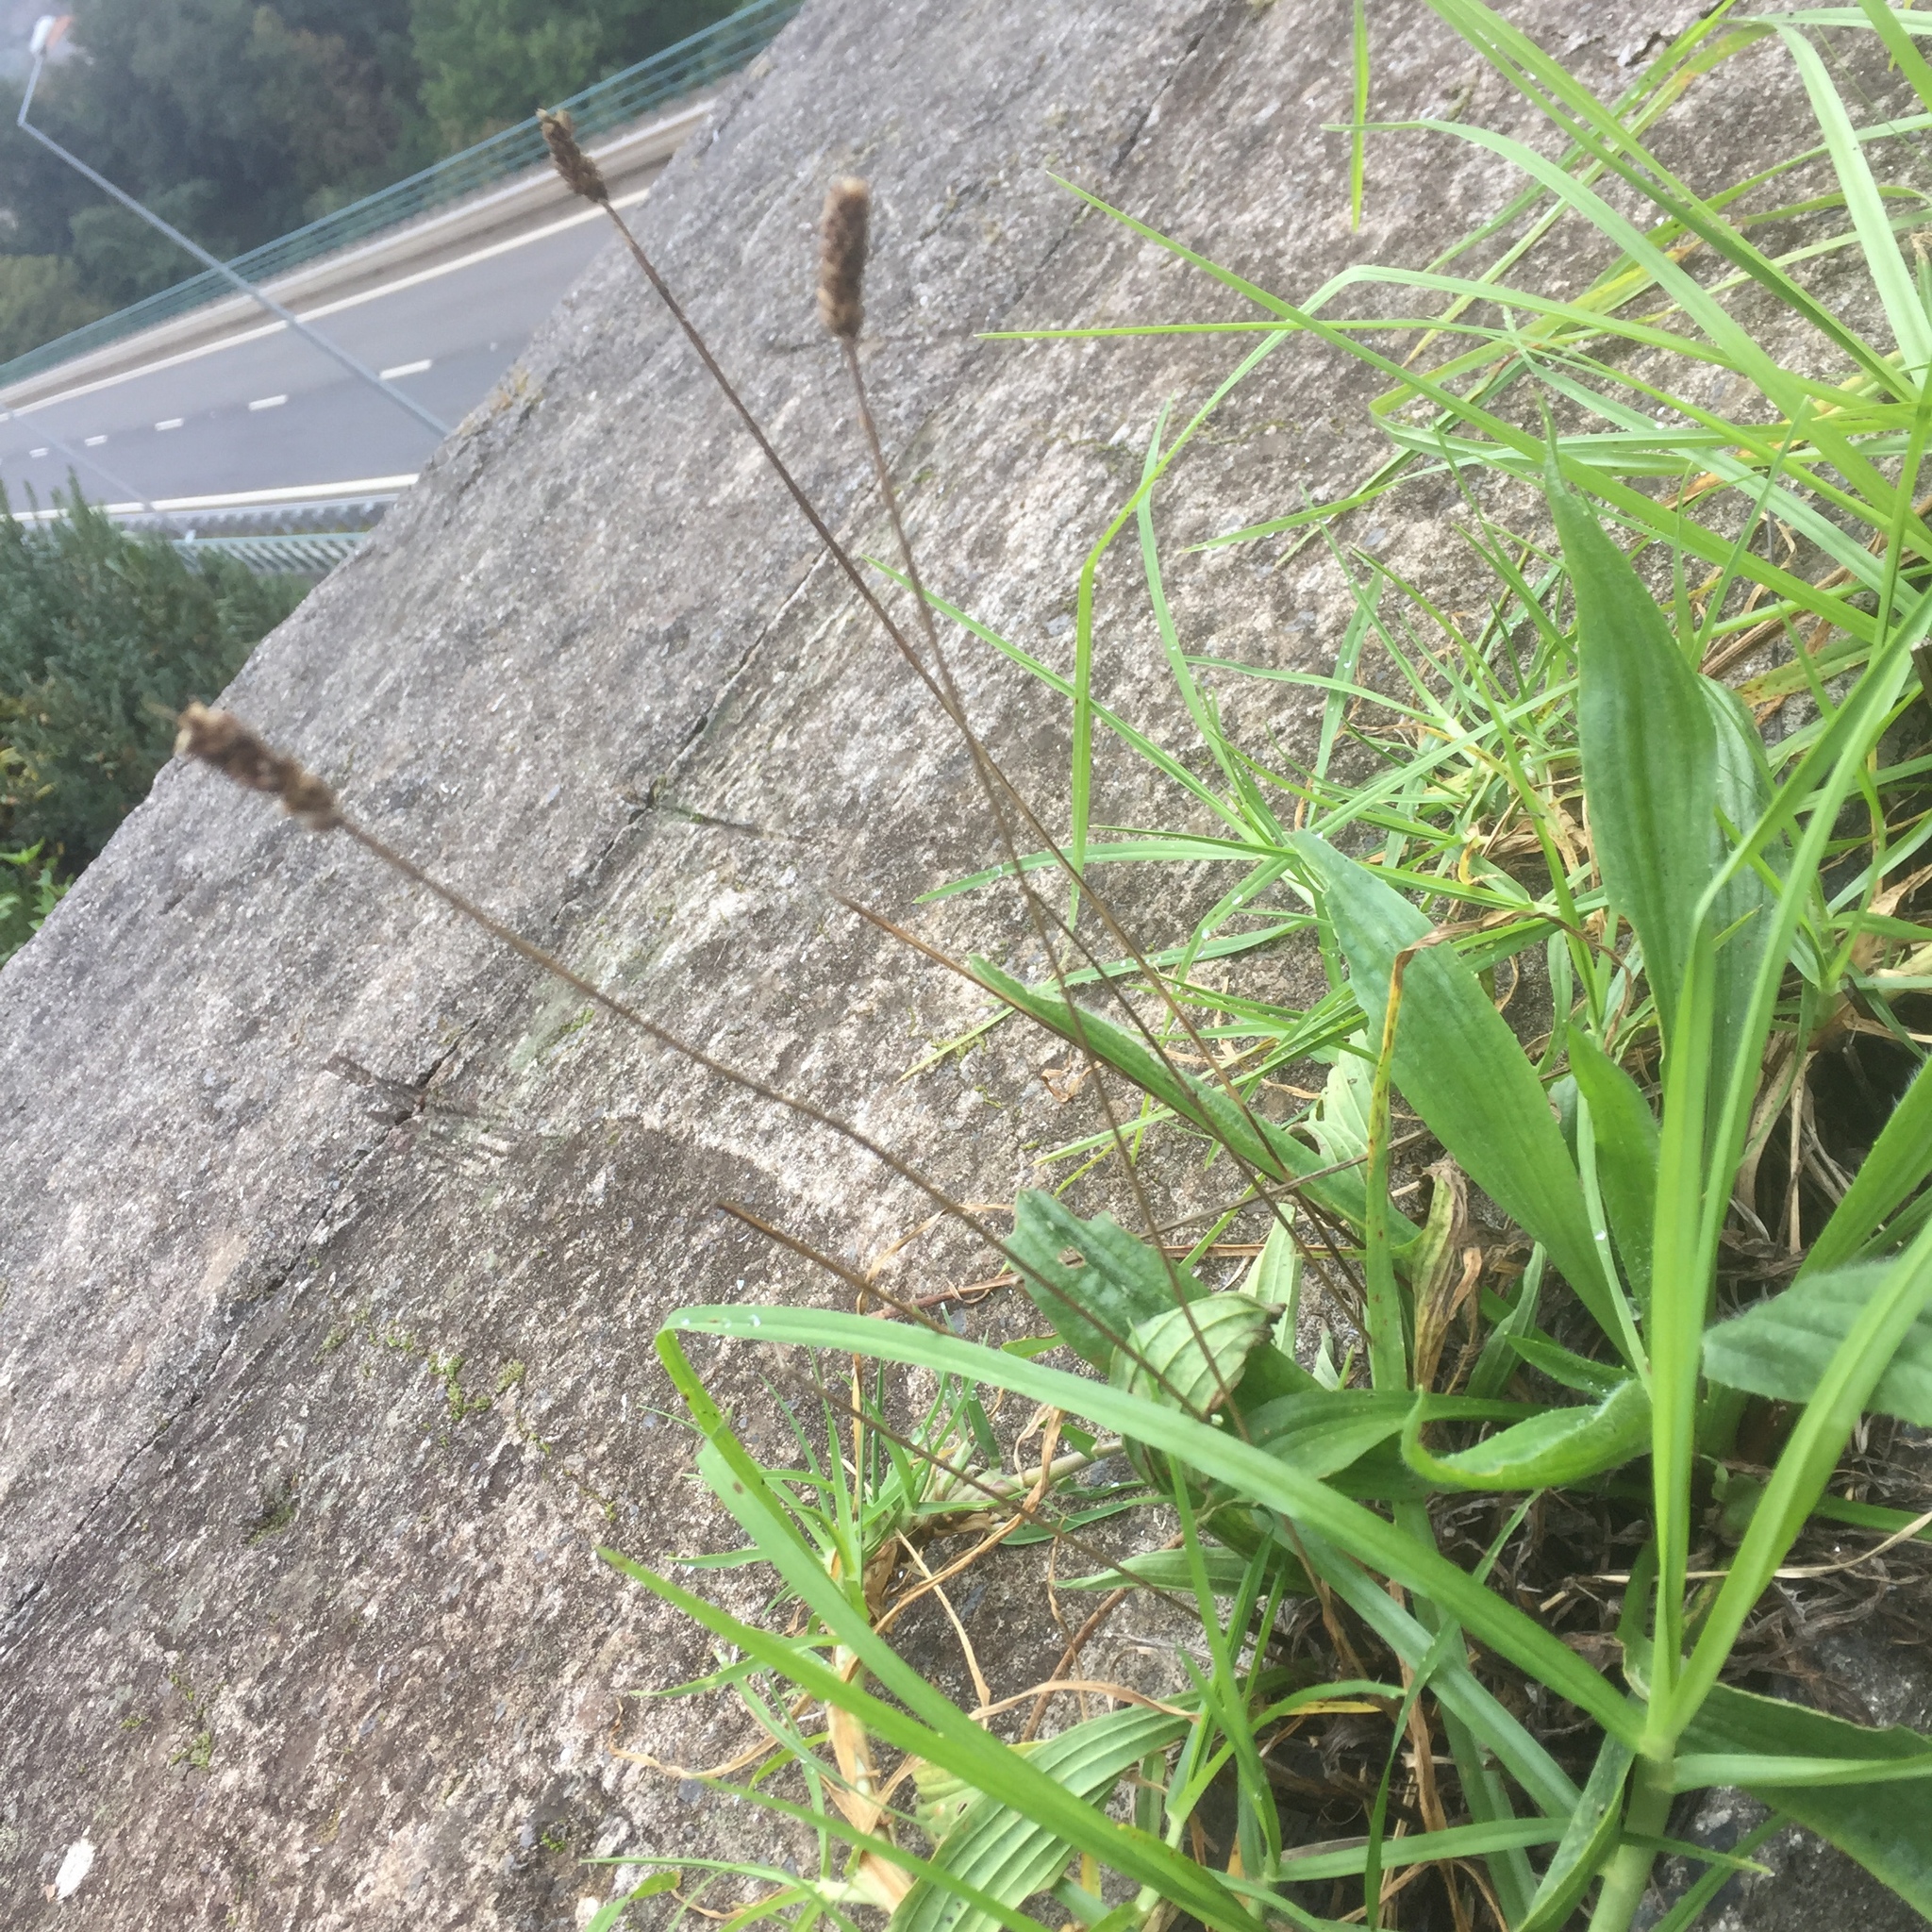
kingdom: Plantae
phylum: Tracheophyta
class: Magnoliopsida
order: Lamiales
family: Plantaginaceae
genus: Plantago
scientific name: Plantago lanceolata
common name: Ribwort plantain
